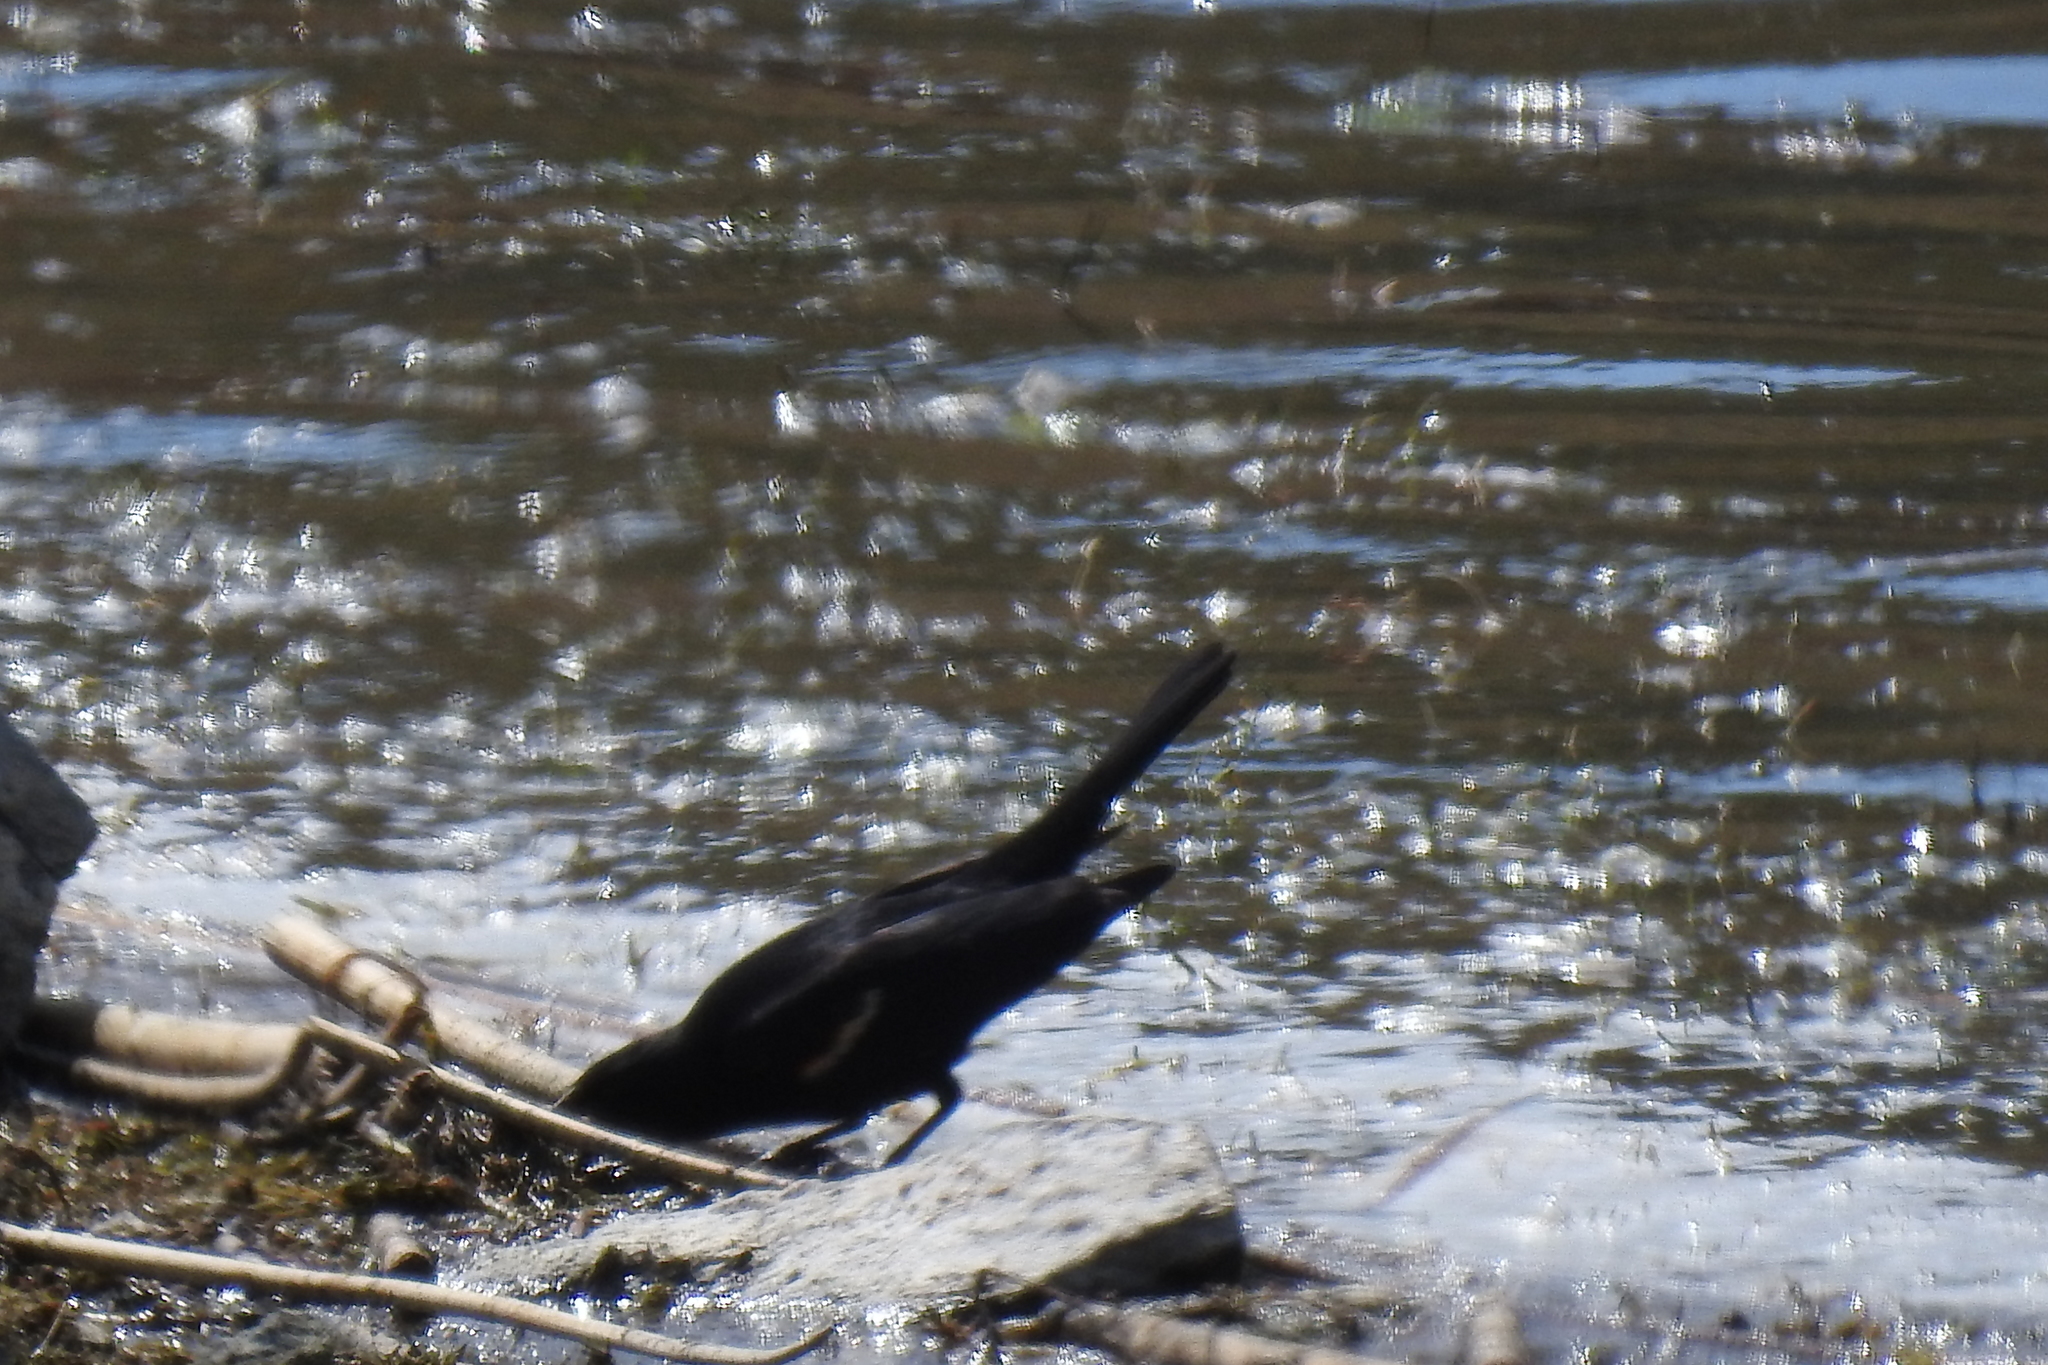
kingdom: Animalia
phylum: Chordata
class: Aves
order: Passeriformes
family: Icteridae
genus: Agelaius
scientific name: Agelaius tricolor
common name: Tricolored blackbird
